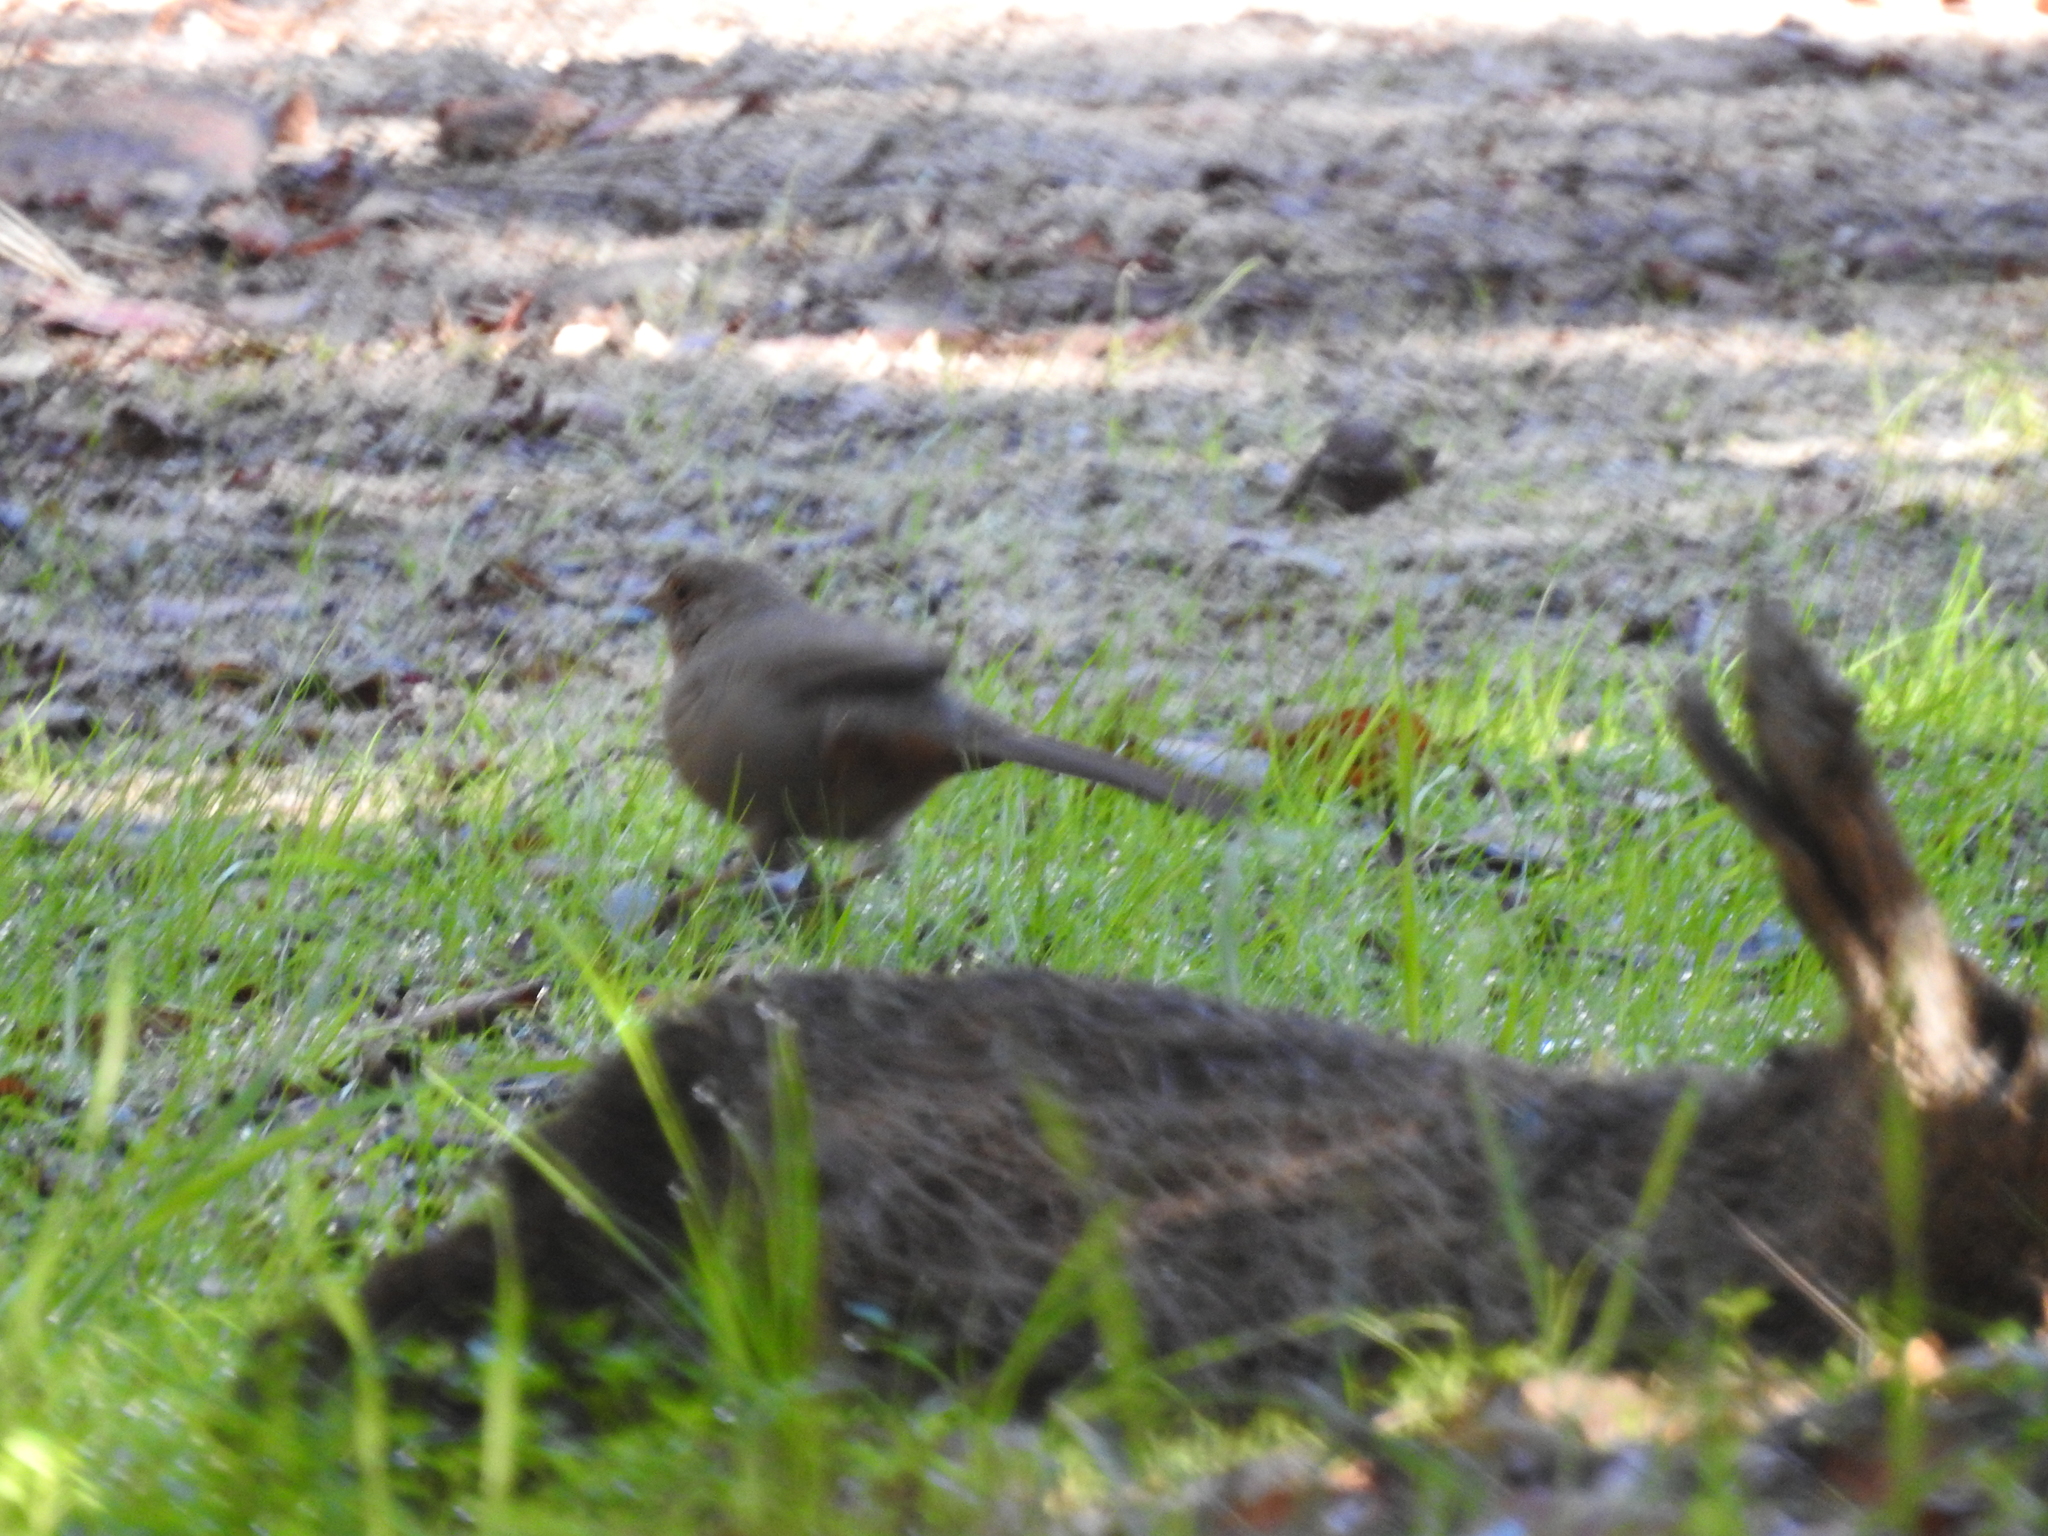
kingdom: Animalia
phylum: Chordata
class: Aves
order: Passeriformes
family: Passerellidae
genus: Melozone
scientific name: Melozone crissalis
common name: California towhee
